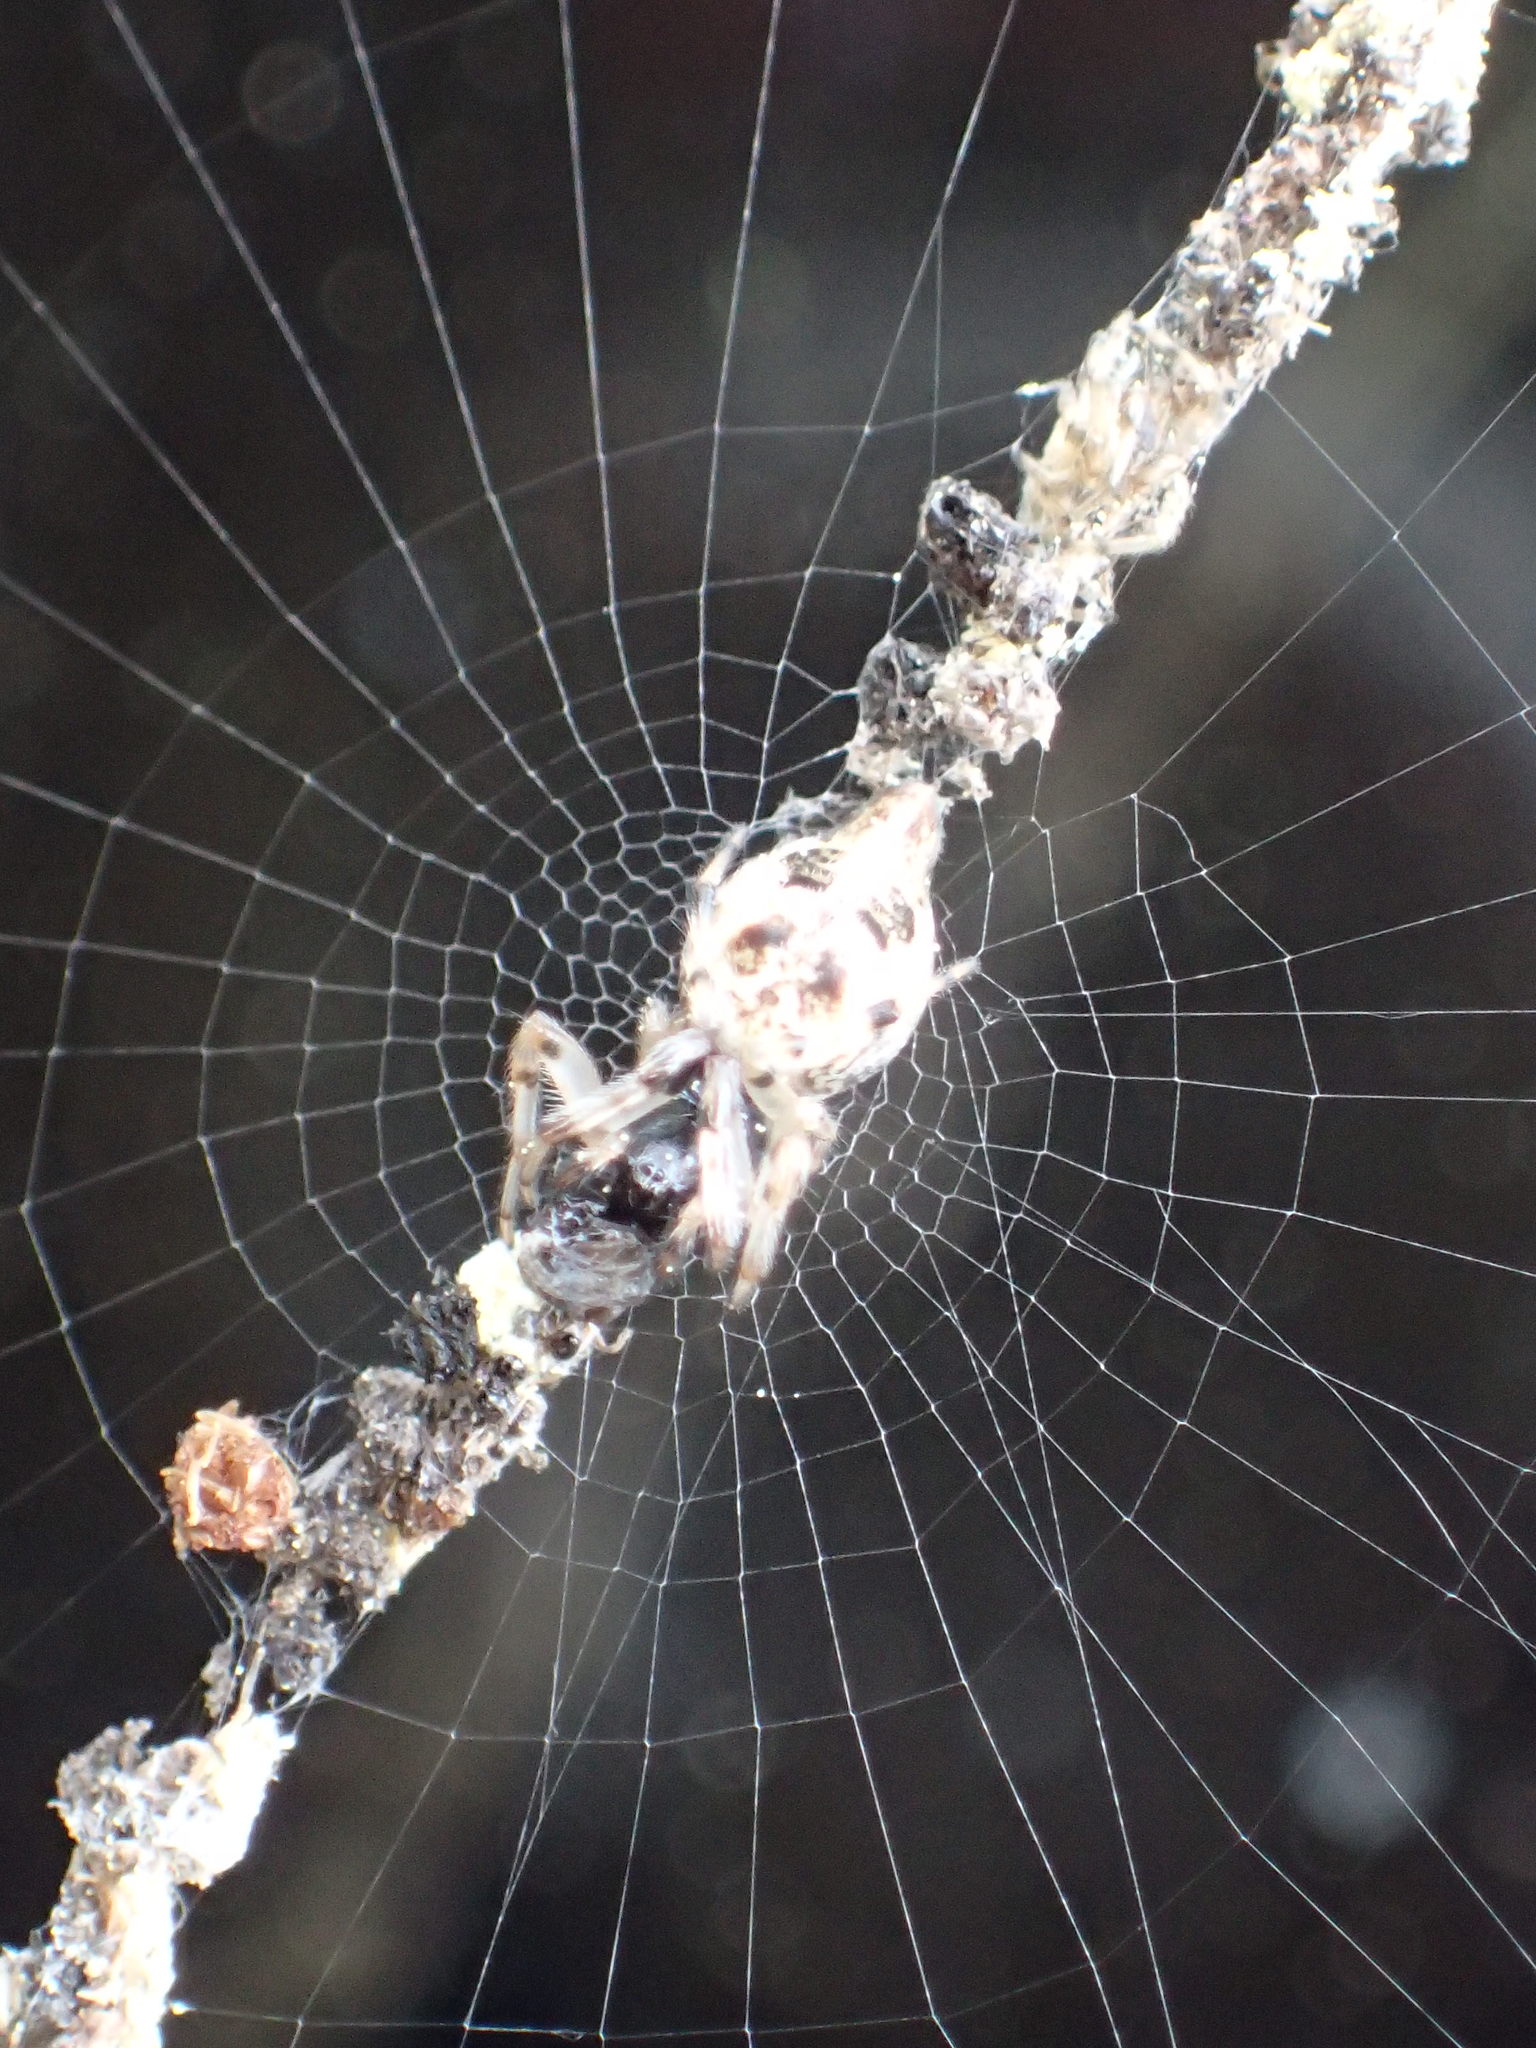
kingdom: Animalia
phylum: Arthropoda
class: Arachnida
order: Araneae
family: Araneidae
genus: Cyclosa
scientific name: Cyclosa turbinata
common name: Orb weavers
